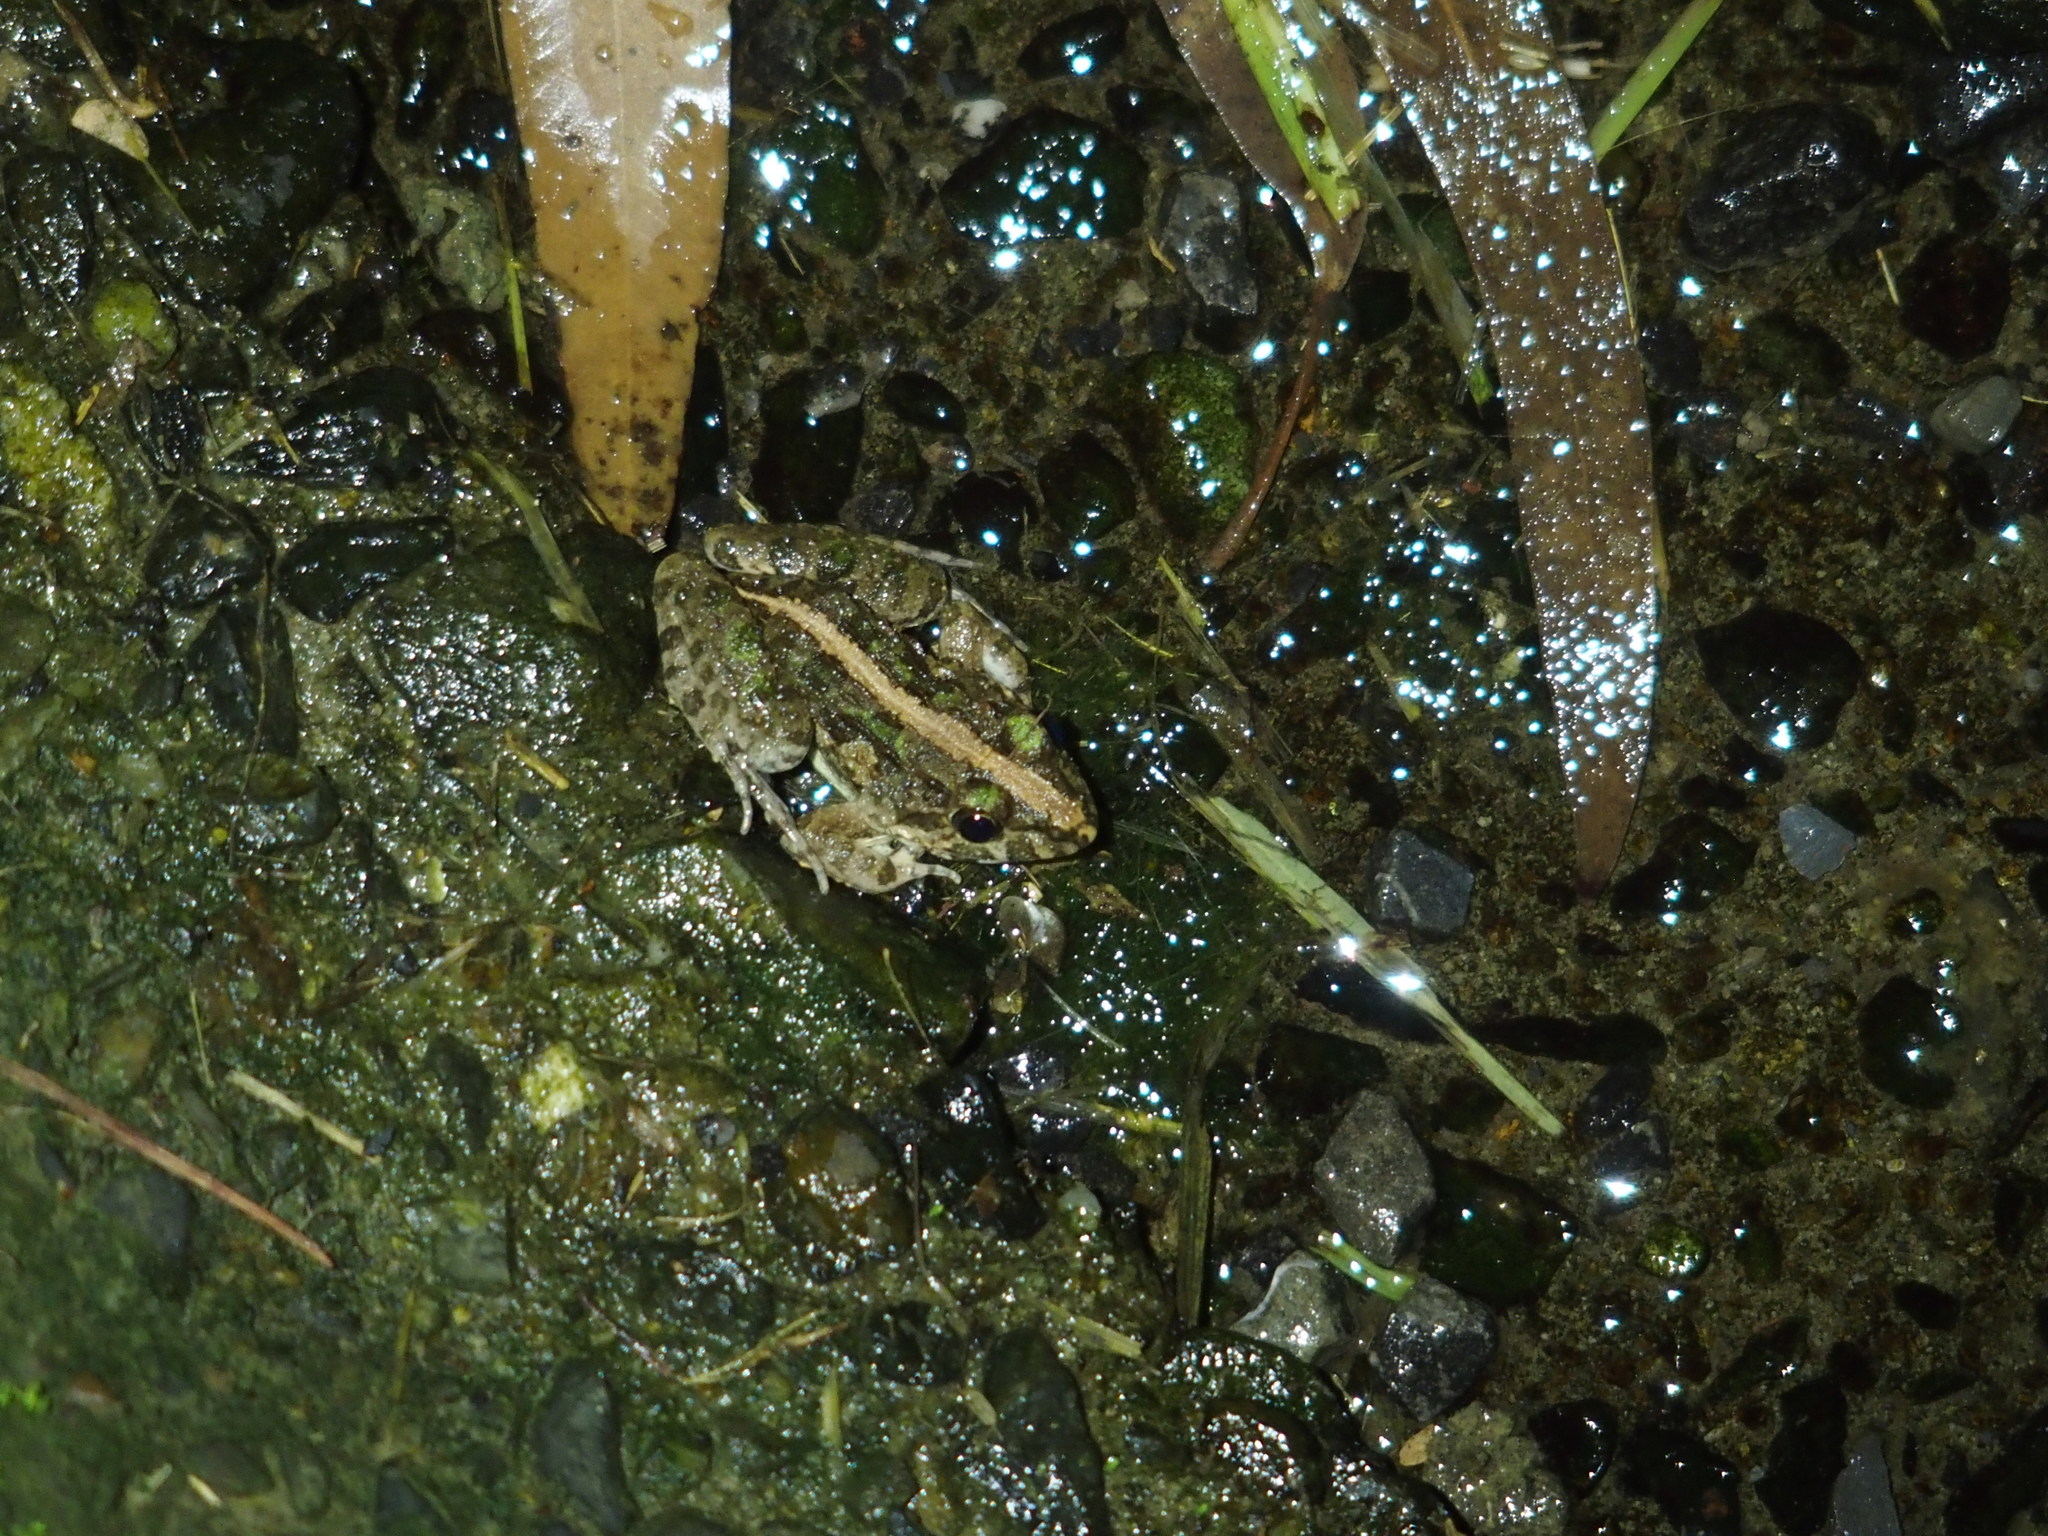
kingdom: Animalia
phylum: Chordata
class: Amphibia
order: Anura
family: Dicroglossidae
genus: Fejervarya
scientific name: Fejervarya limnocharis
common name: Asian grass frog/common pond frog/field frog/grass frog/indian rice frog
